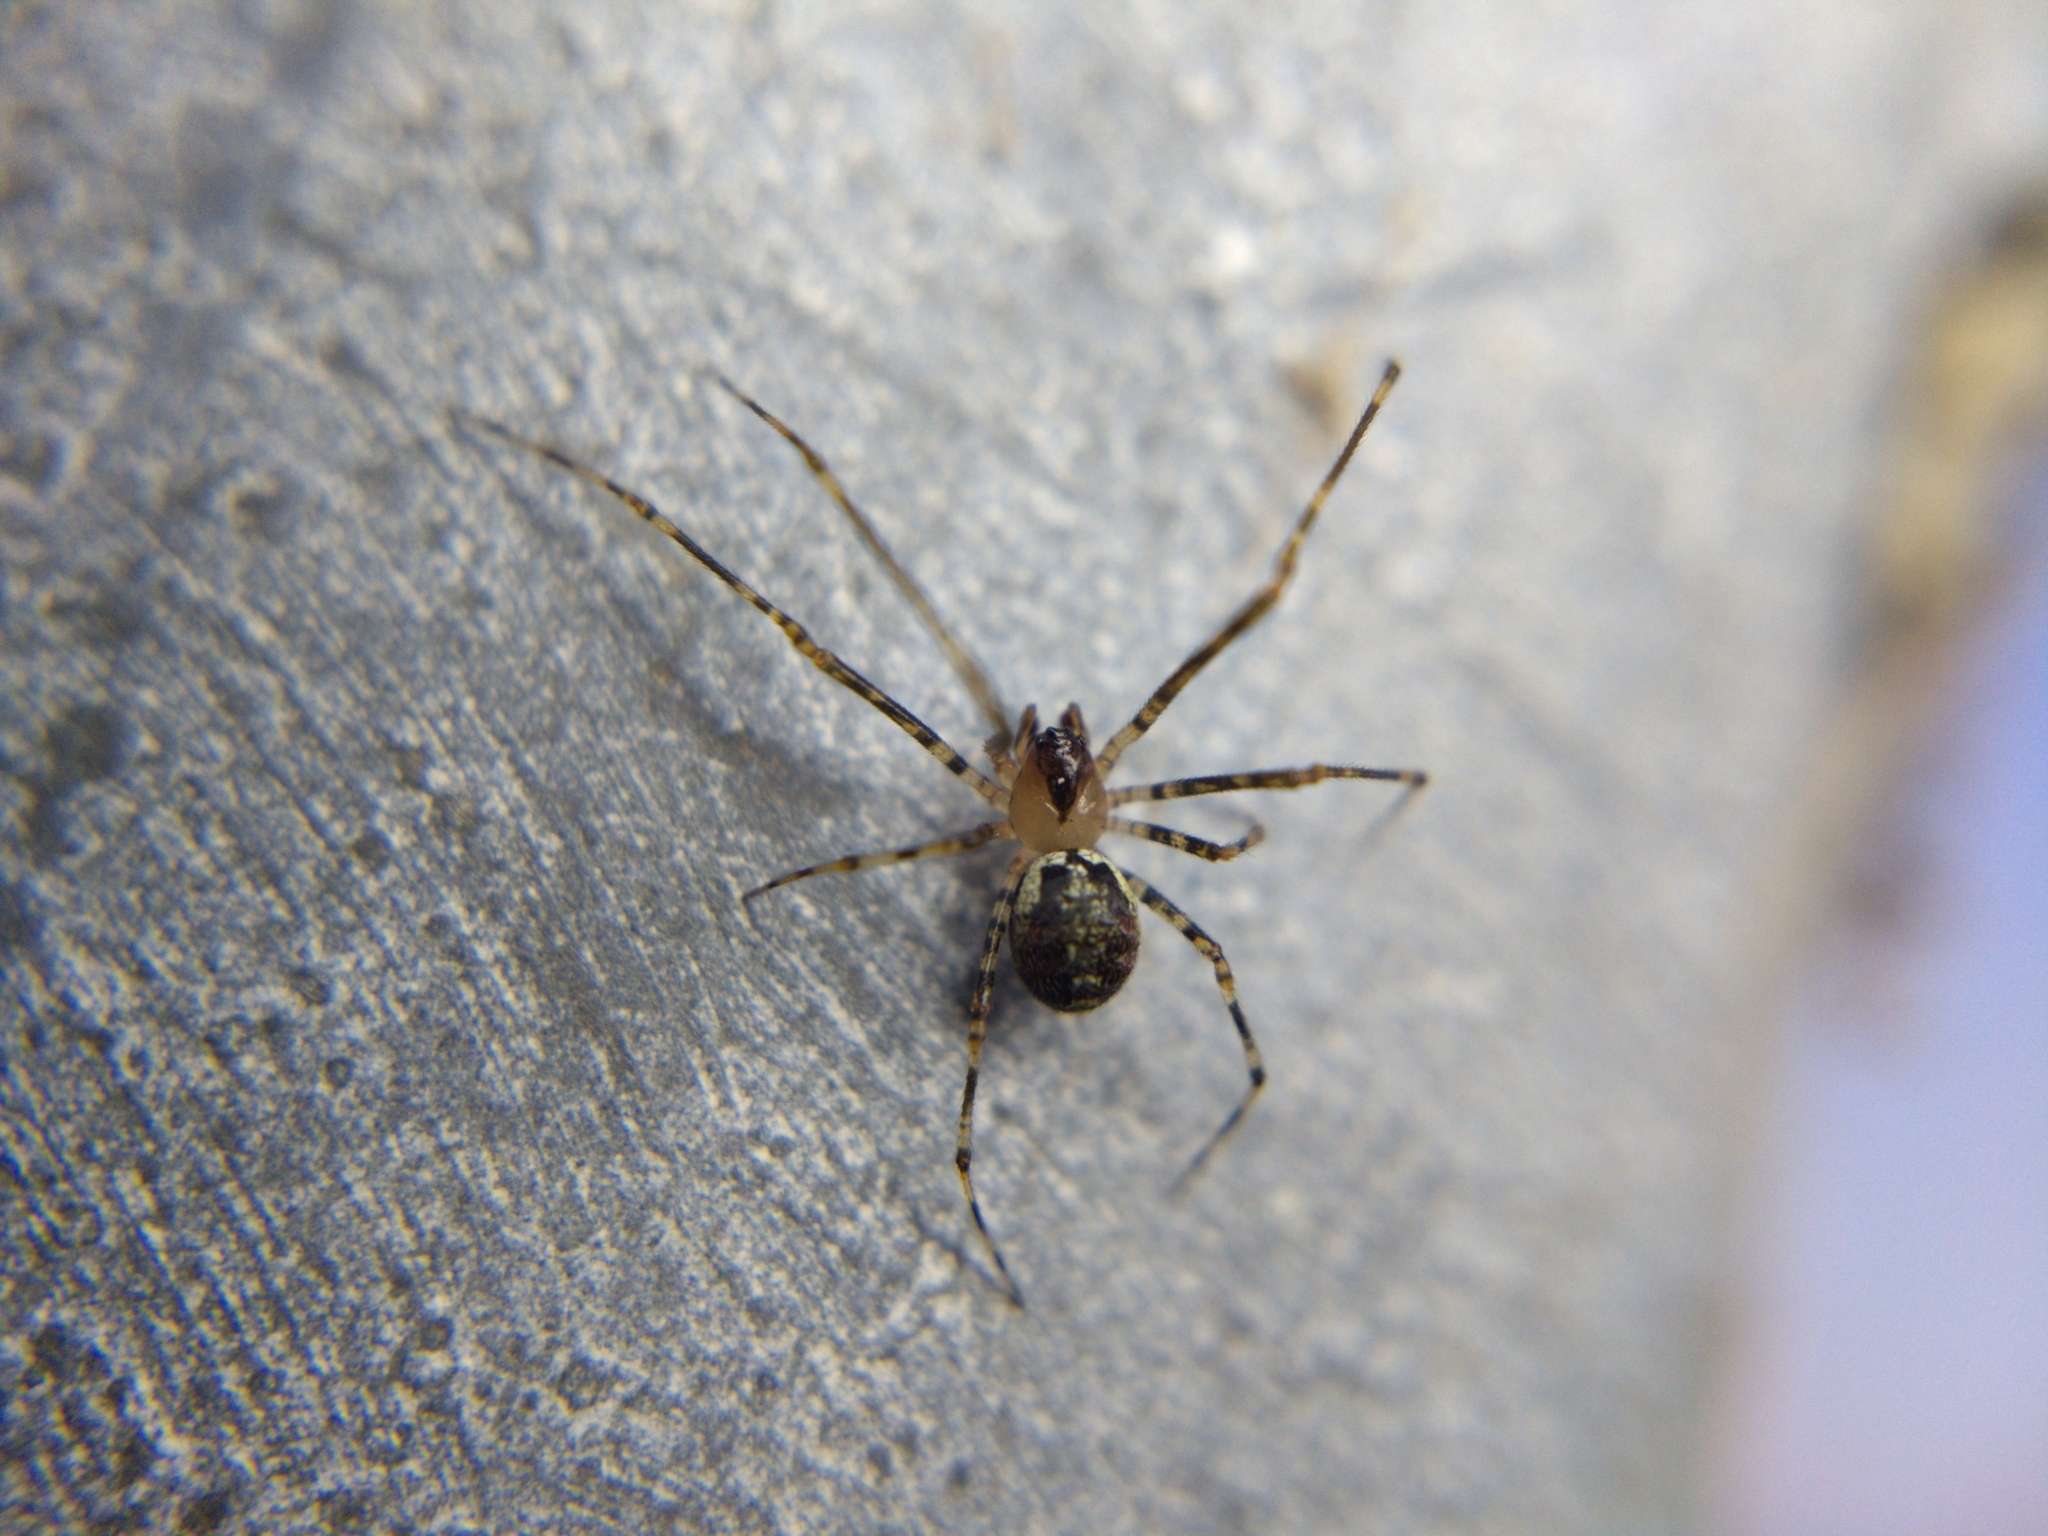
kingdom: Animalia
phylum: Arthropoda
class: Arachnida
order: Araneae
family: Theridiidae
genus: Platnickina
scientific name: Platnickina tincta
